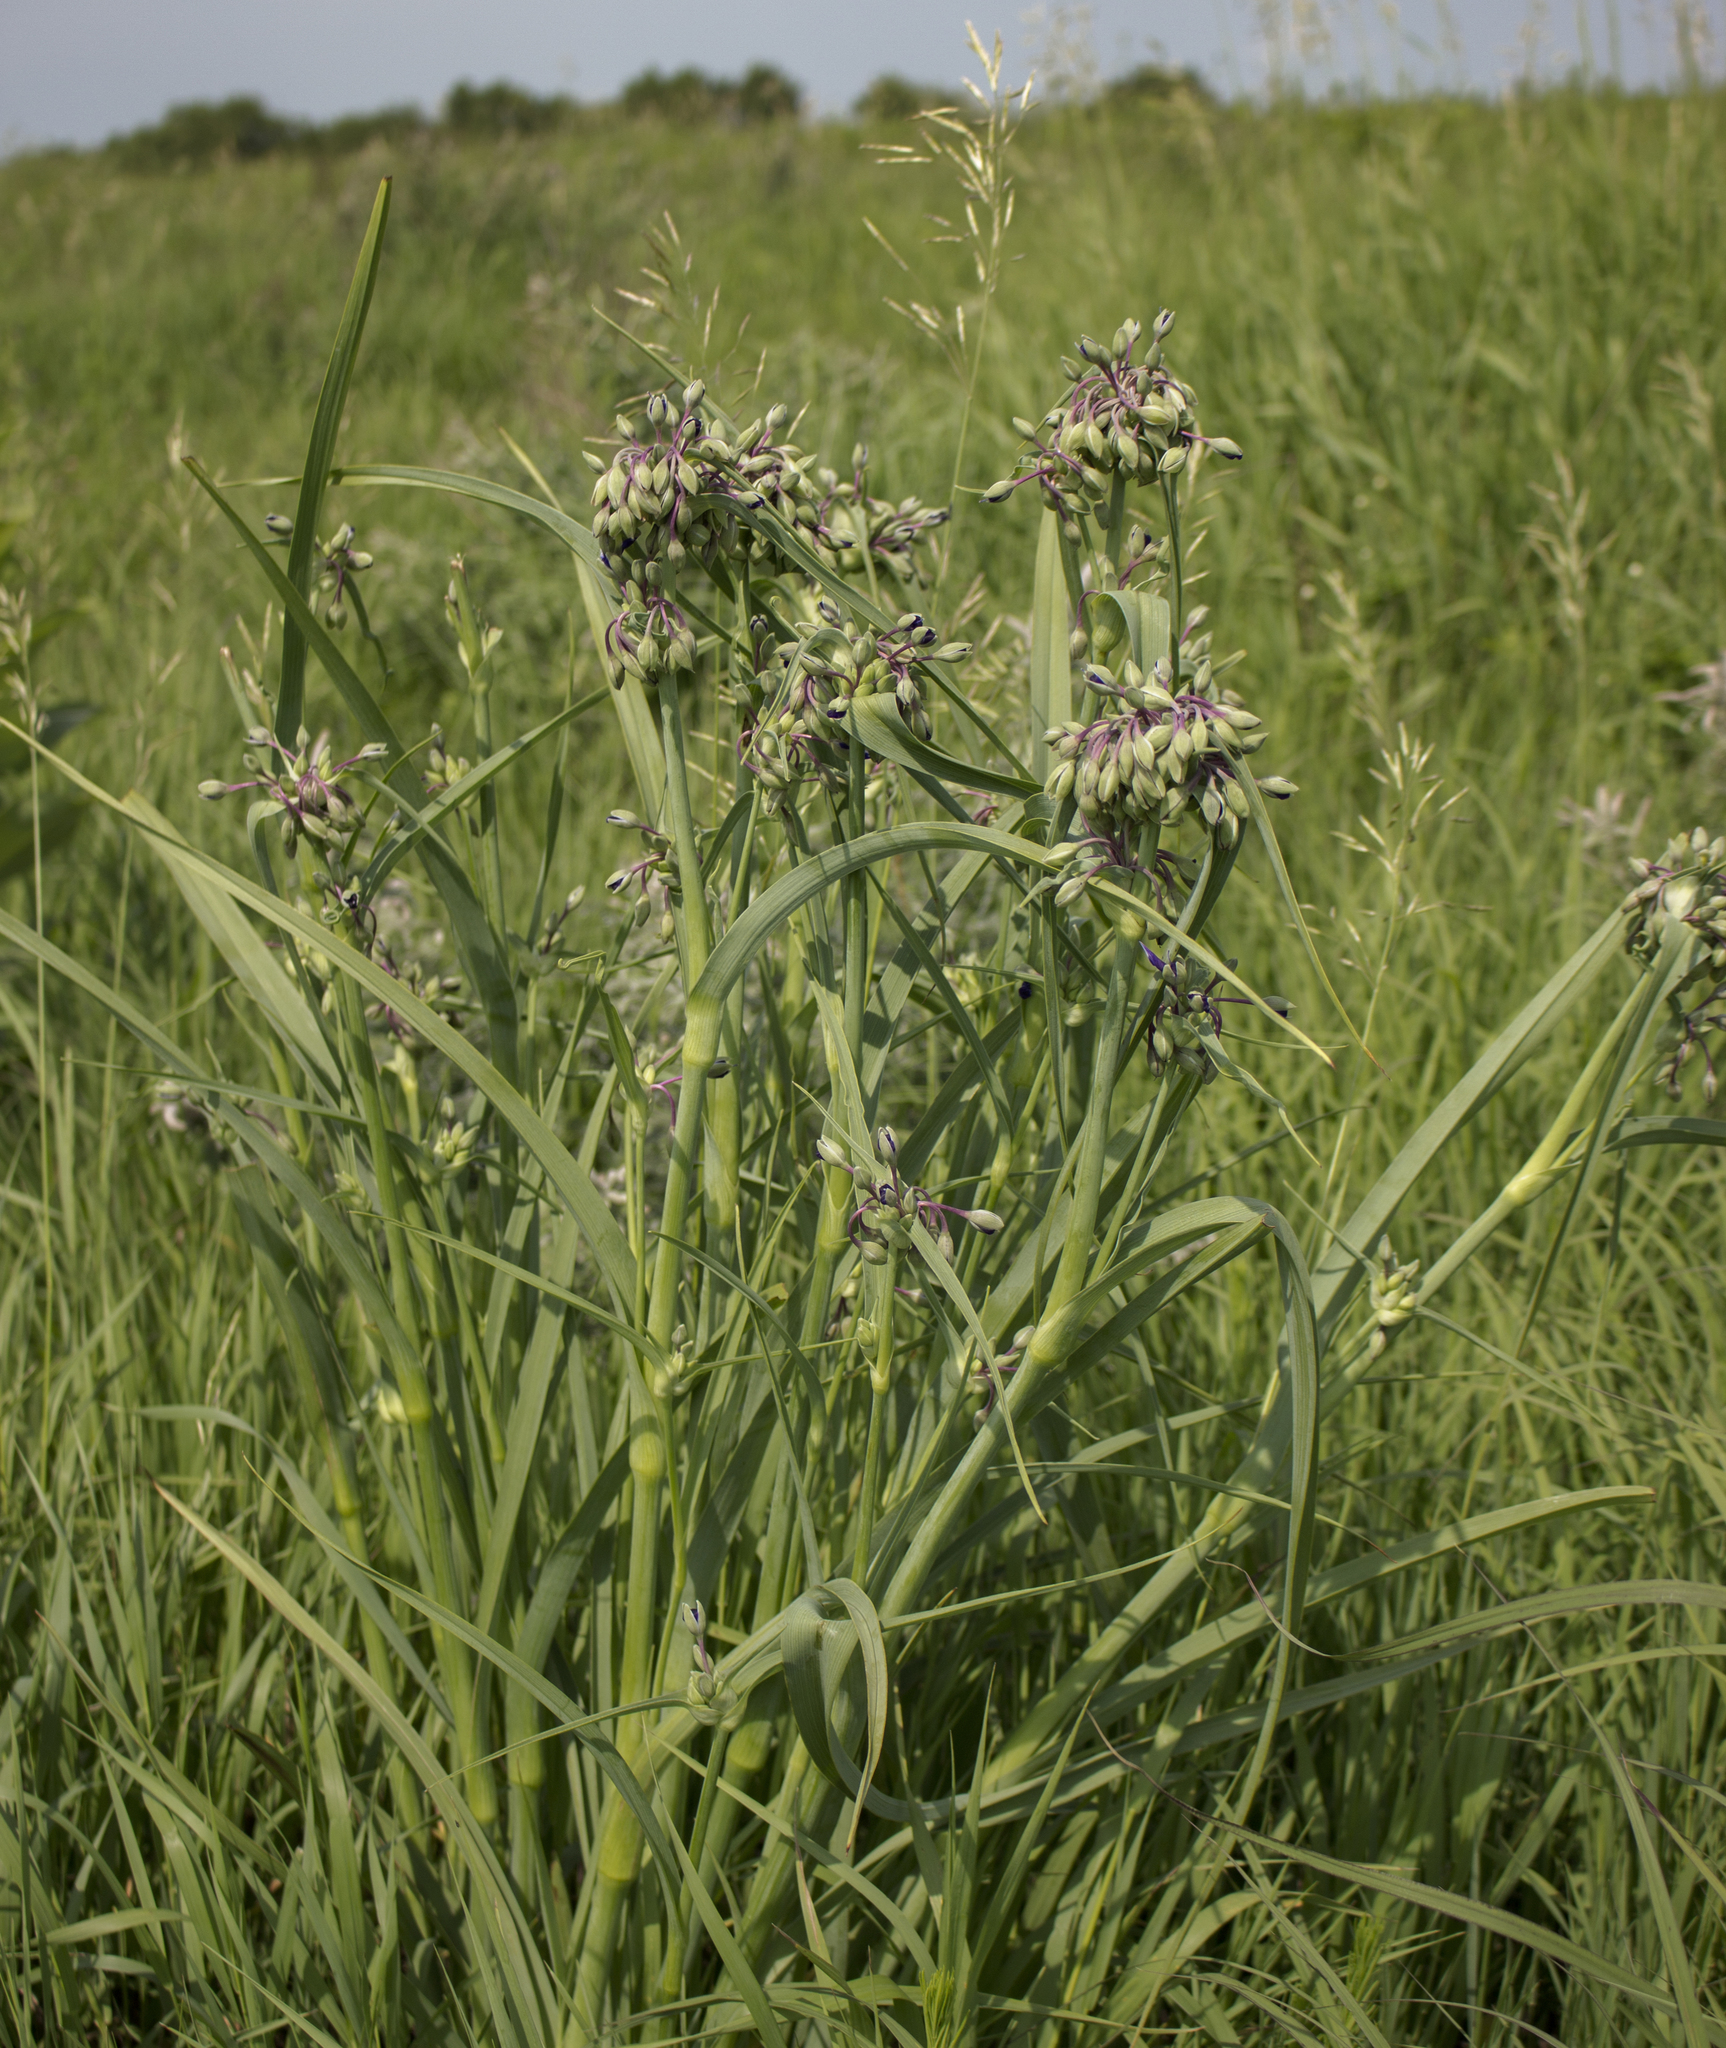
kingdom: Plantae
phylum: Tracheophyta
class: Liliopsida
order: Commelinales
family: Commelinaceae
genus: Tradescantia
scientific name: Tradescantia ohiensis
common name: Ohio spiderwort
